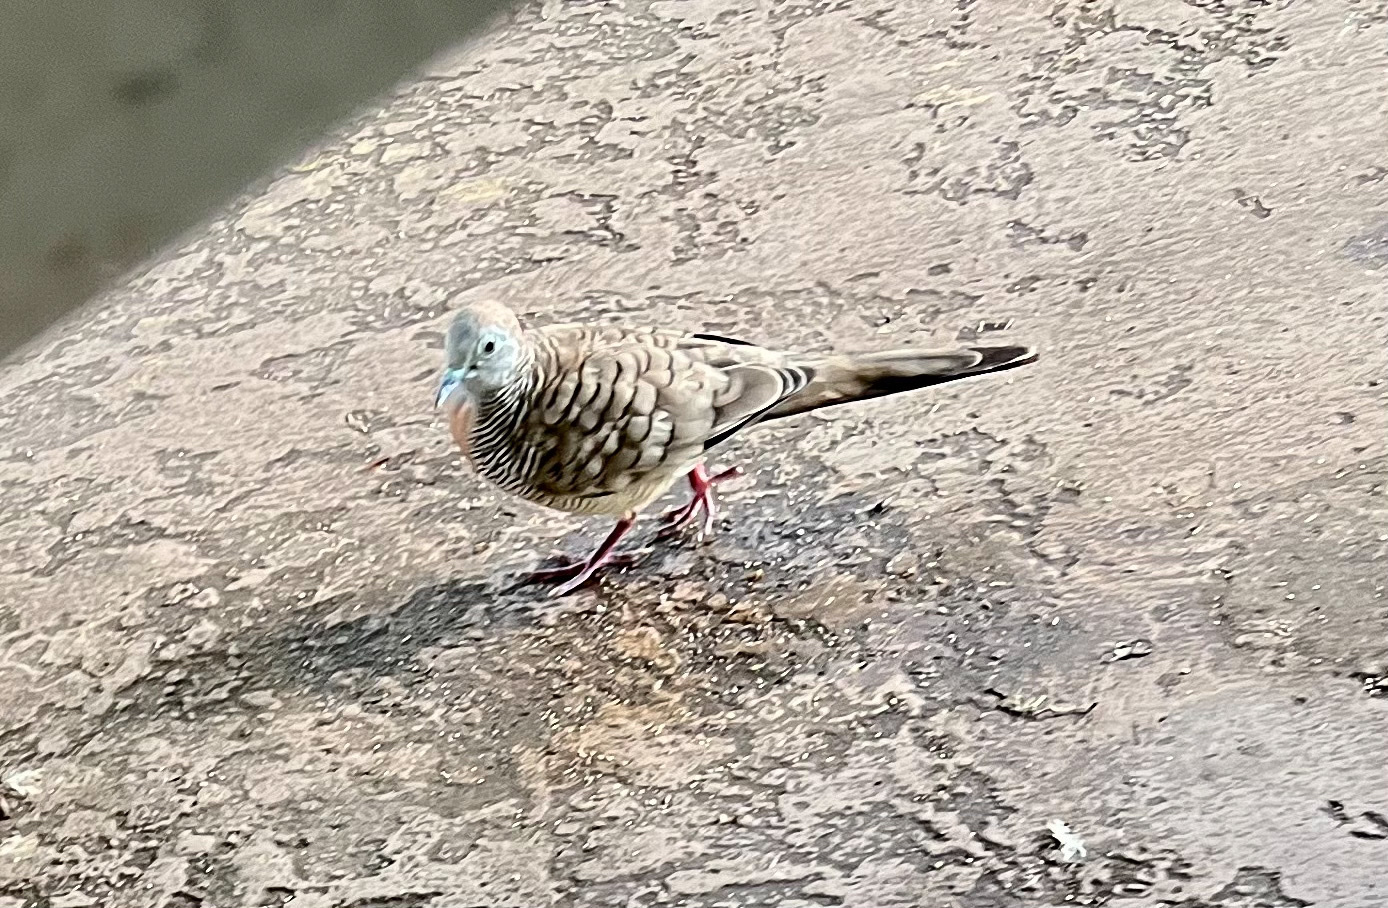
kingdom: Animalia
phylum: Chordata
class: Aves
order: Columbiformes
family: Columbidae
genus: Geopelia
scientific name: Geopelia striata
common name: Zebra dove
